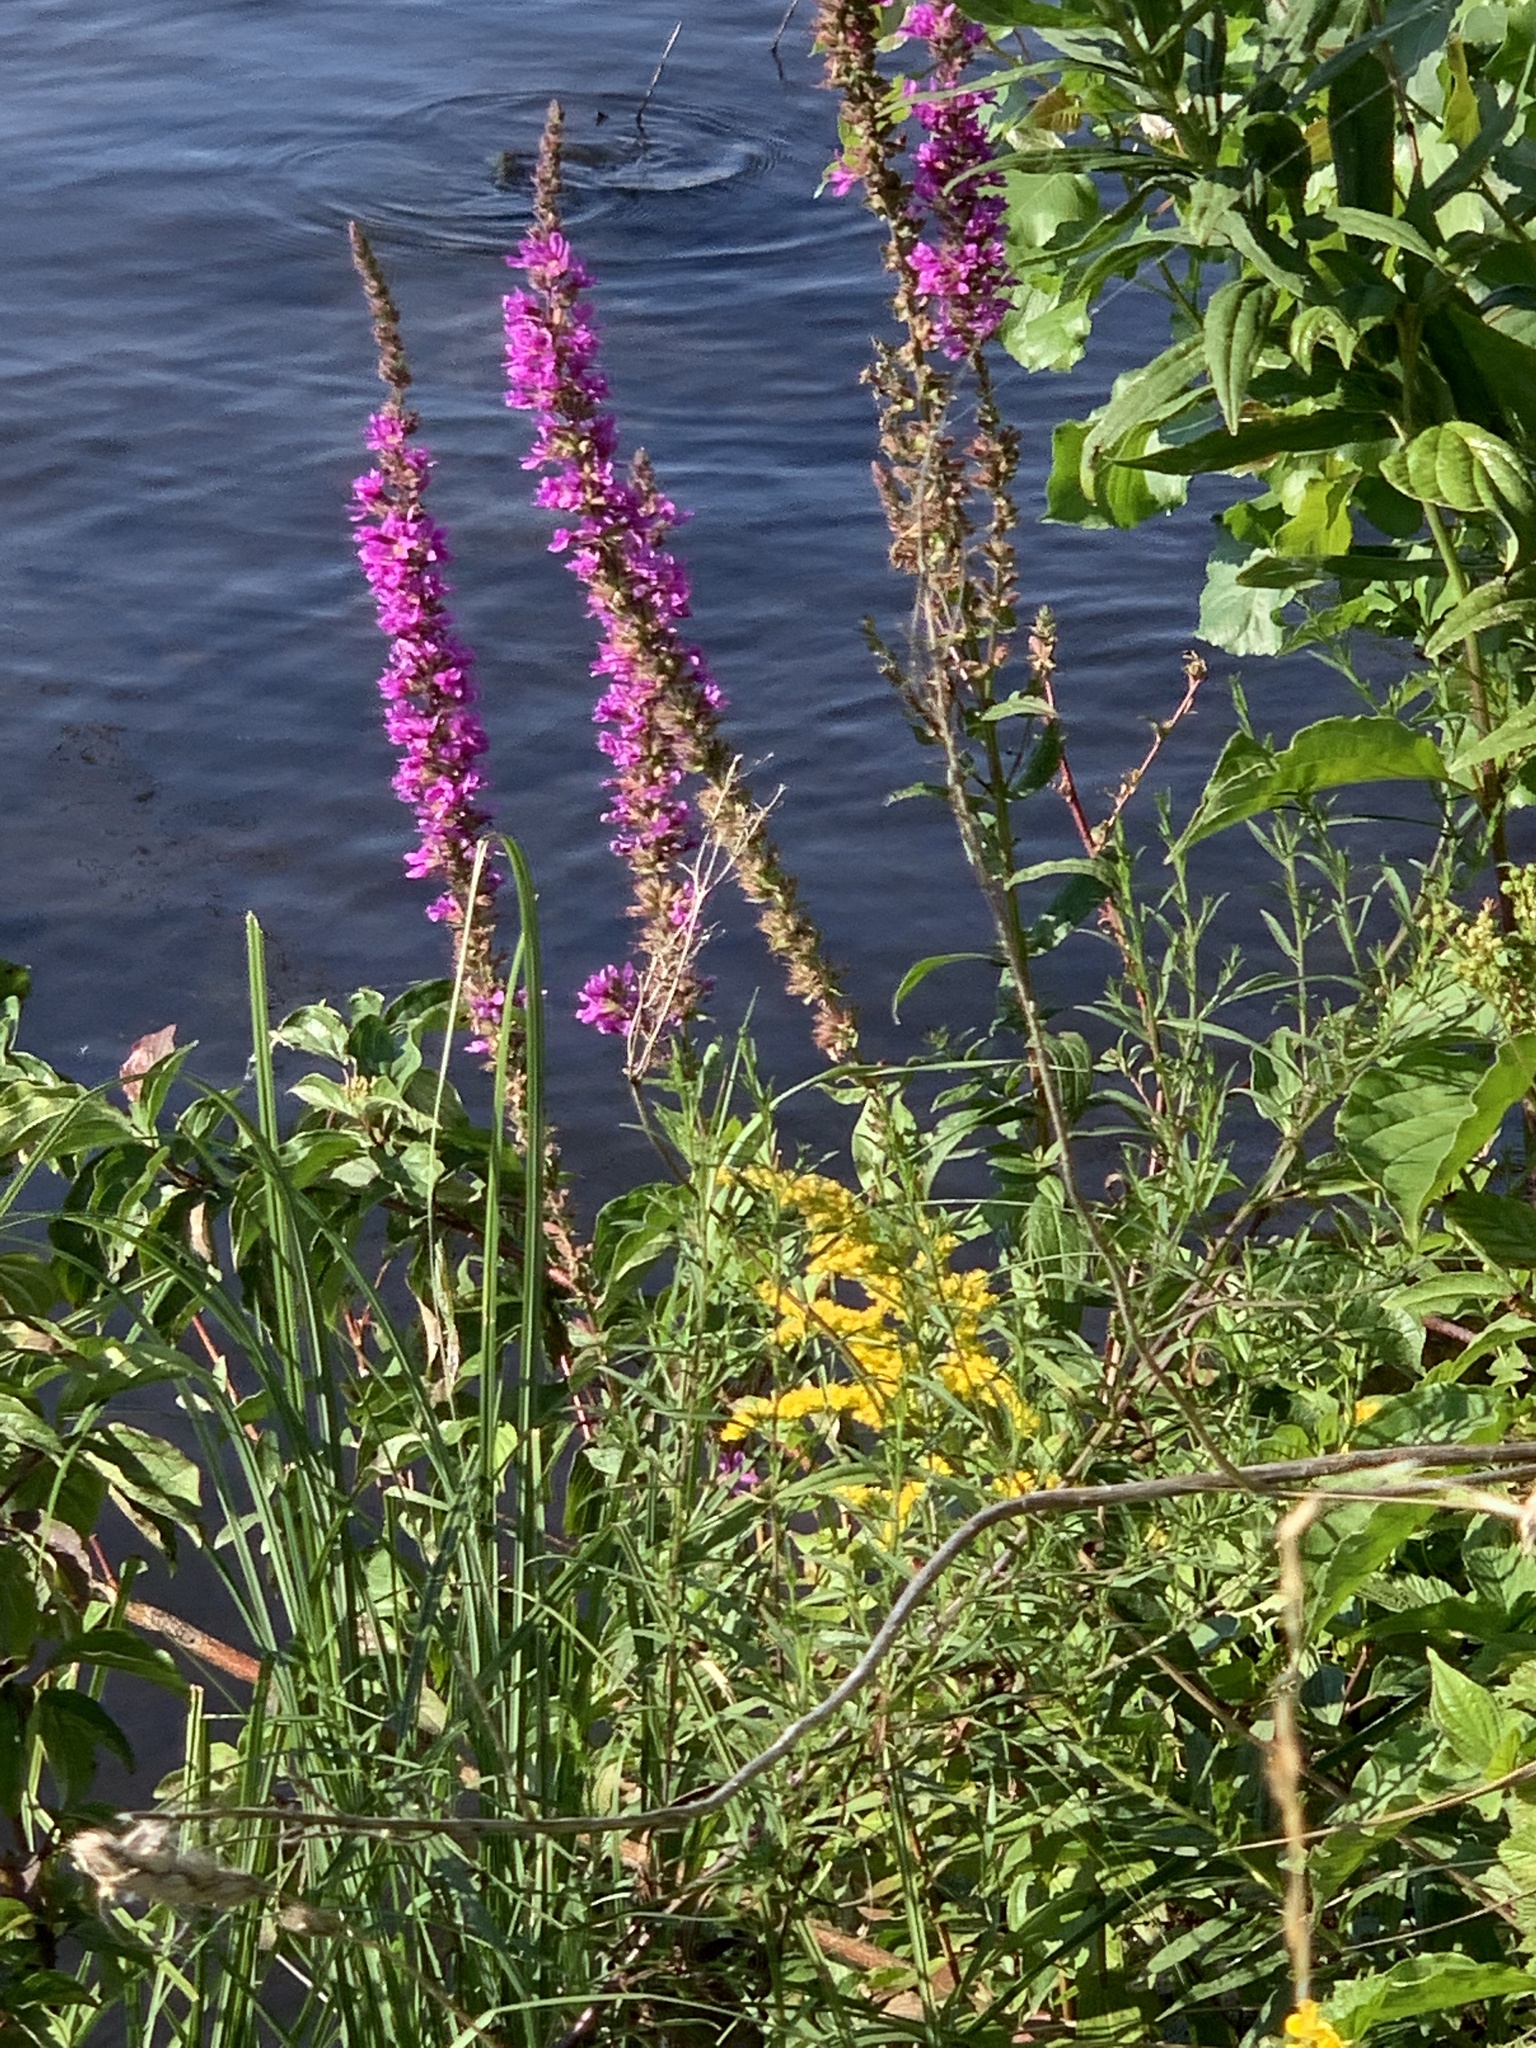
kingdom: Plantae
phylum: Tracheophyta
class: Magnoliopsida
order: Myrtales
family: Lythraceae
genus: Lythrum
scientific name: Lythrum salicaria
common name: Purple loosestrife
